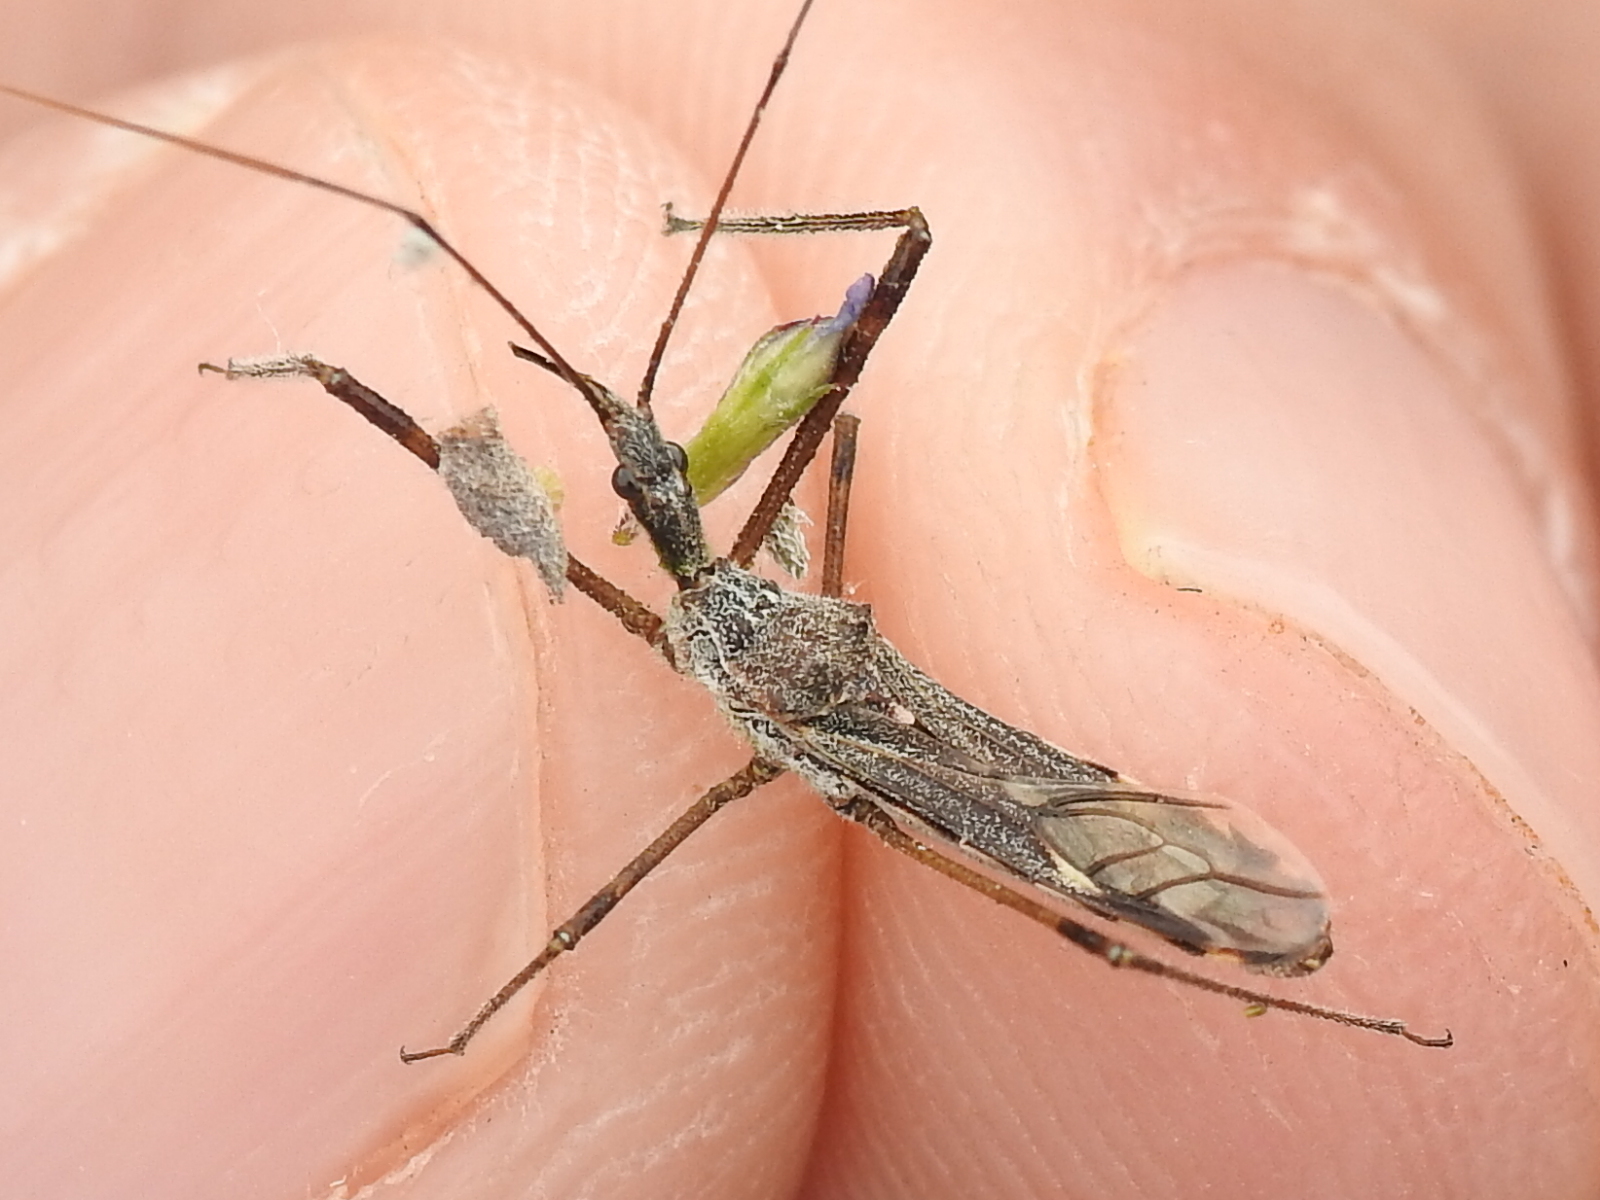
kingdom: Animalia
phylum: Arthropoda
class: Insecta
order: Hemiptera
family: Reduviidae
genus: Zelus
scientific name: Zelus tetracanthus
